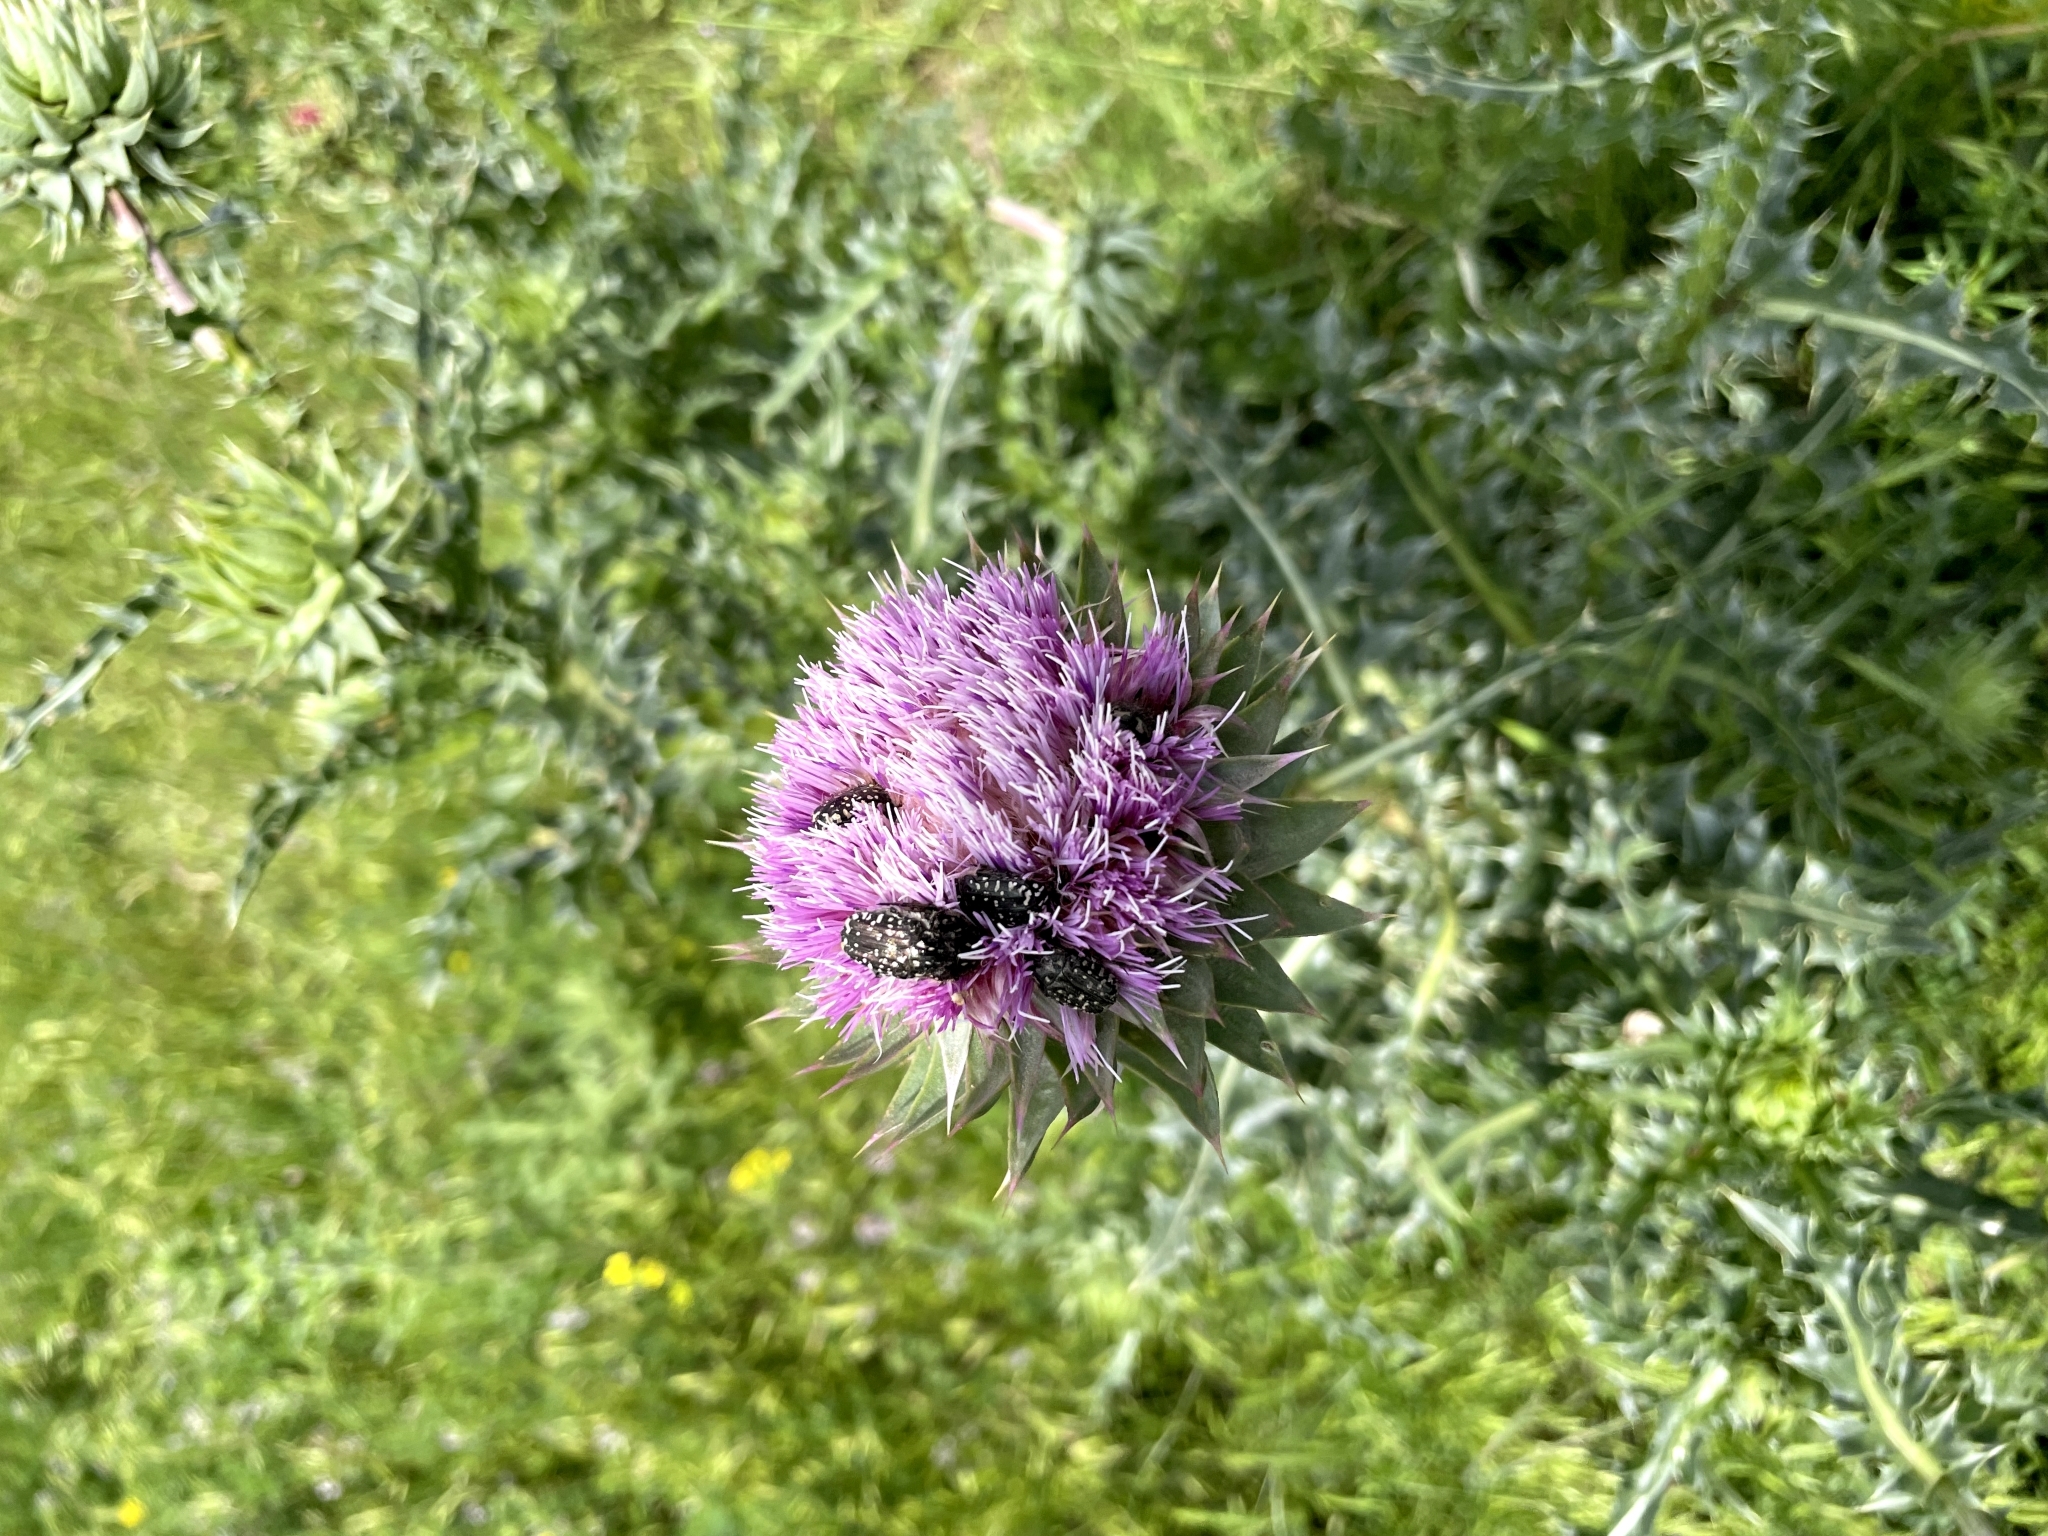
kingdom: Plantae
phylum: Tracheophyta
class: Magnoliopsida
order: Asterales
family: Asteraceae
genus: Carduus
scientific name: Carduus nutans
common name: Musk thistle
